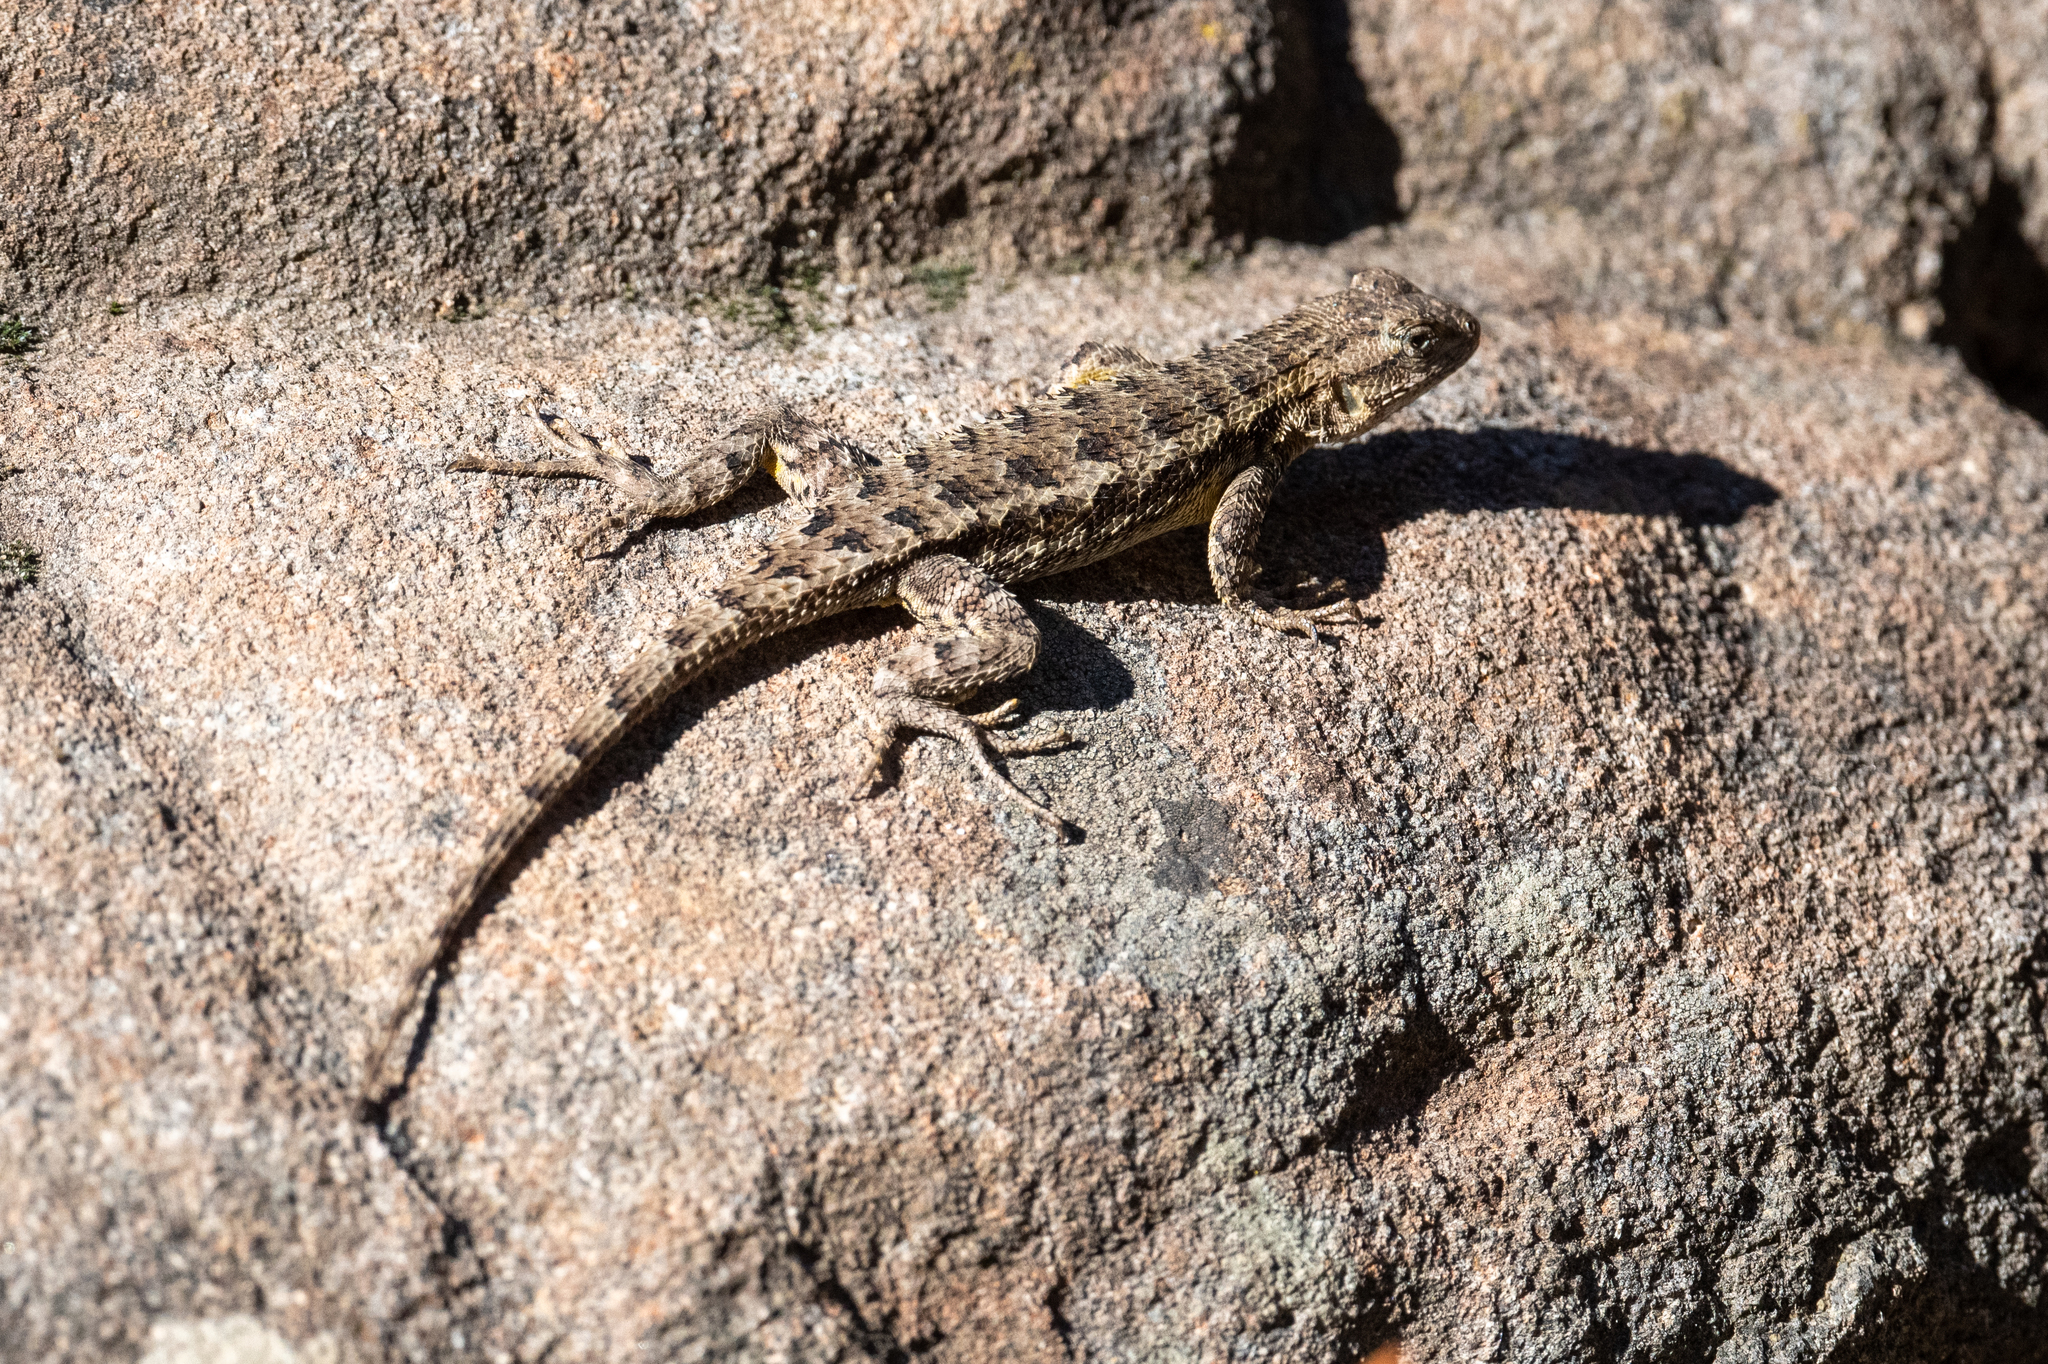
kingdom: Animalia
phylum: Chordata
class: Squamata
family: Phrynosomatidae
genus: Sceloporus
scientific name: Sceloporus occidentalis
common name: Western fence lizard
